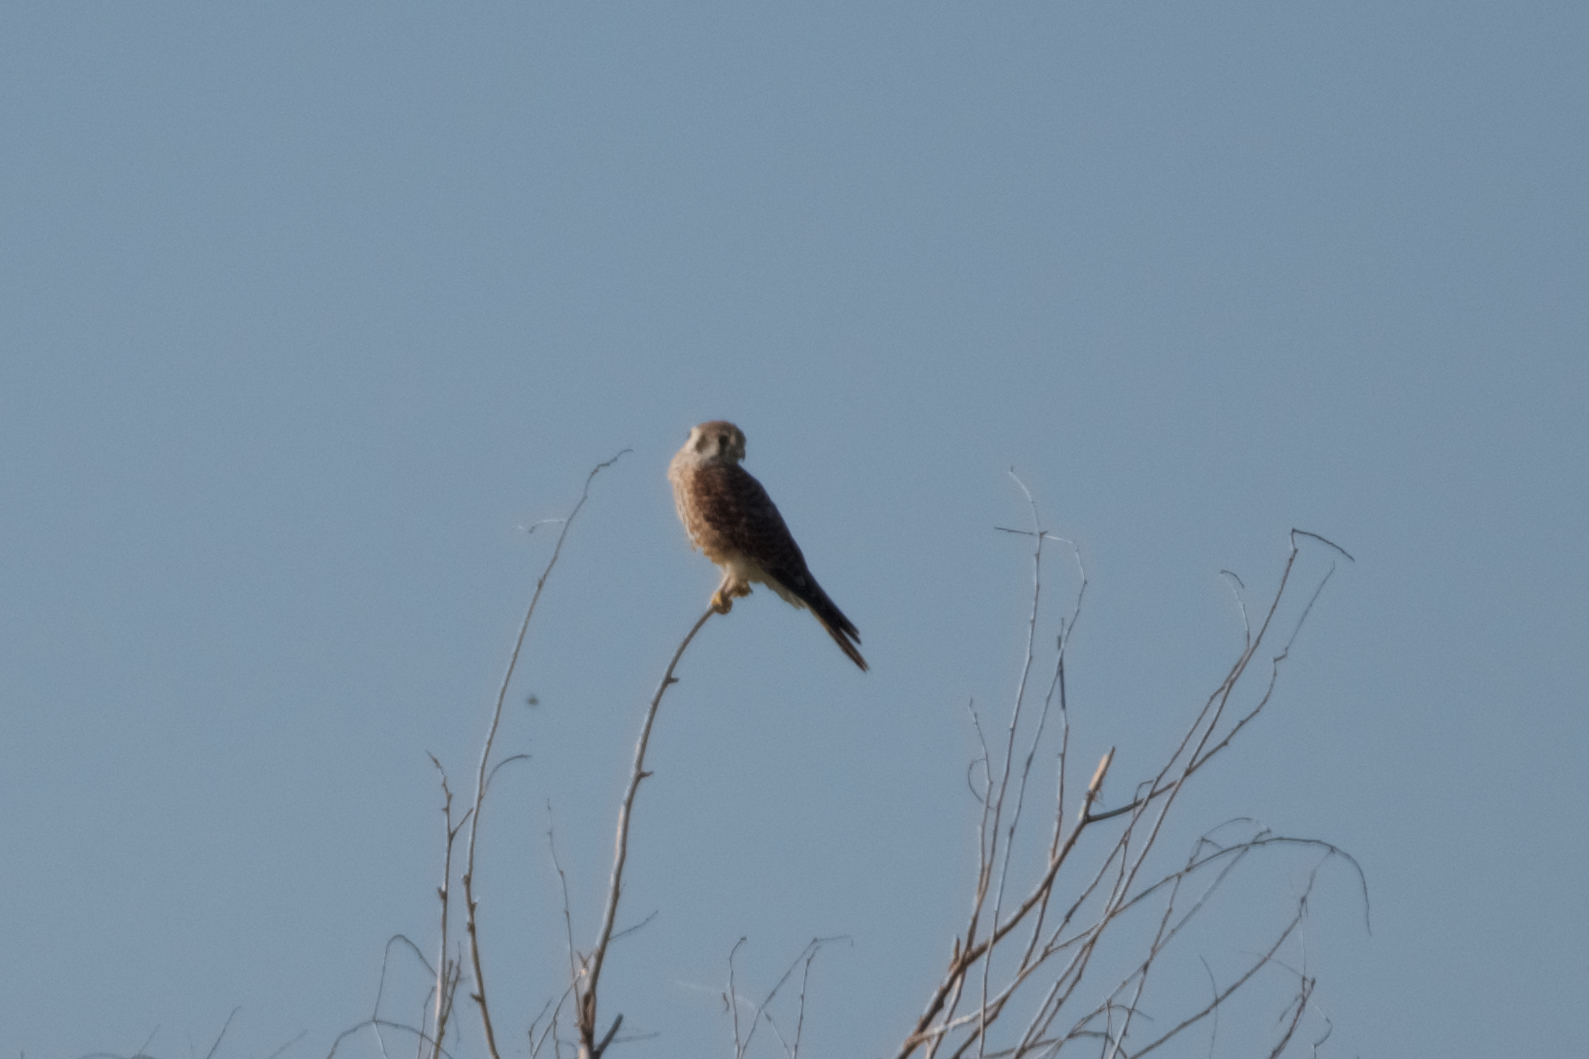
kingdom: Animalia
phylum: Chordata
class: Aves
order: Falconiformes
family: Falconidae
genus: Falco
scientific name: Falco sparverius
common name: American kestrel
